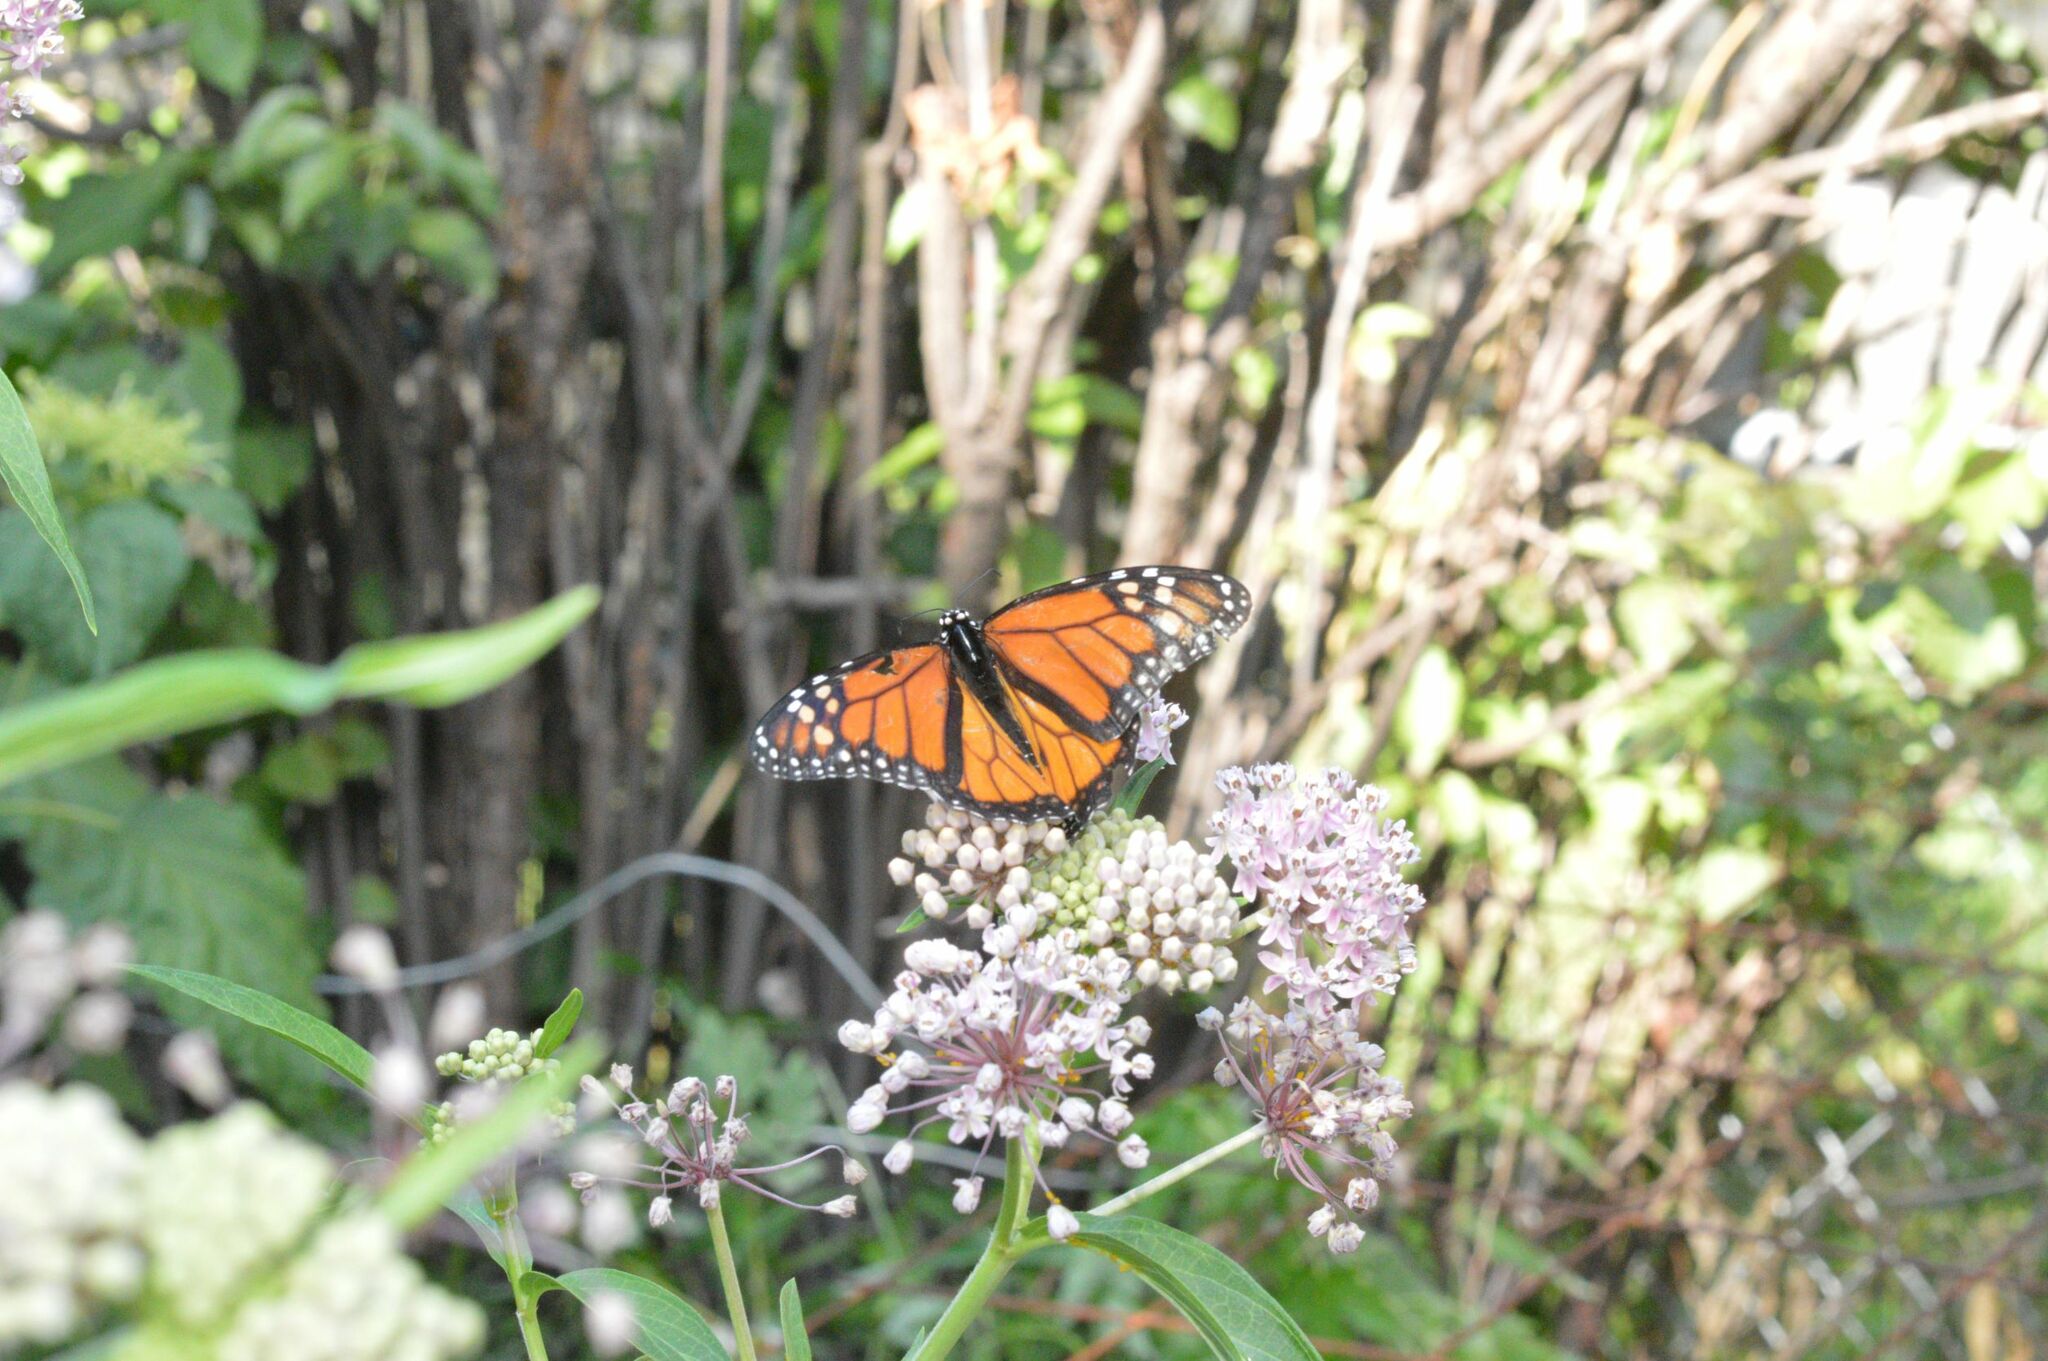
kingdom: Animalia
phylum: Arthropoda
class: Insecta
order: Lepidoptera
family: Nymphalidae
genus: Danaus
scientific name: Danaus plexippus
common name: Monarch
